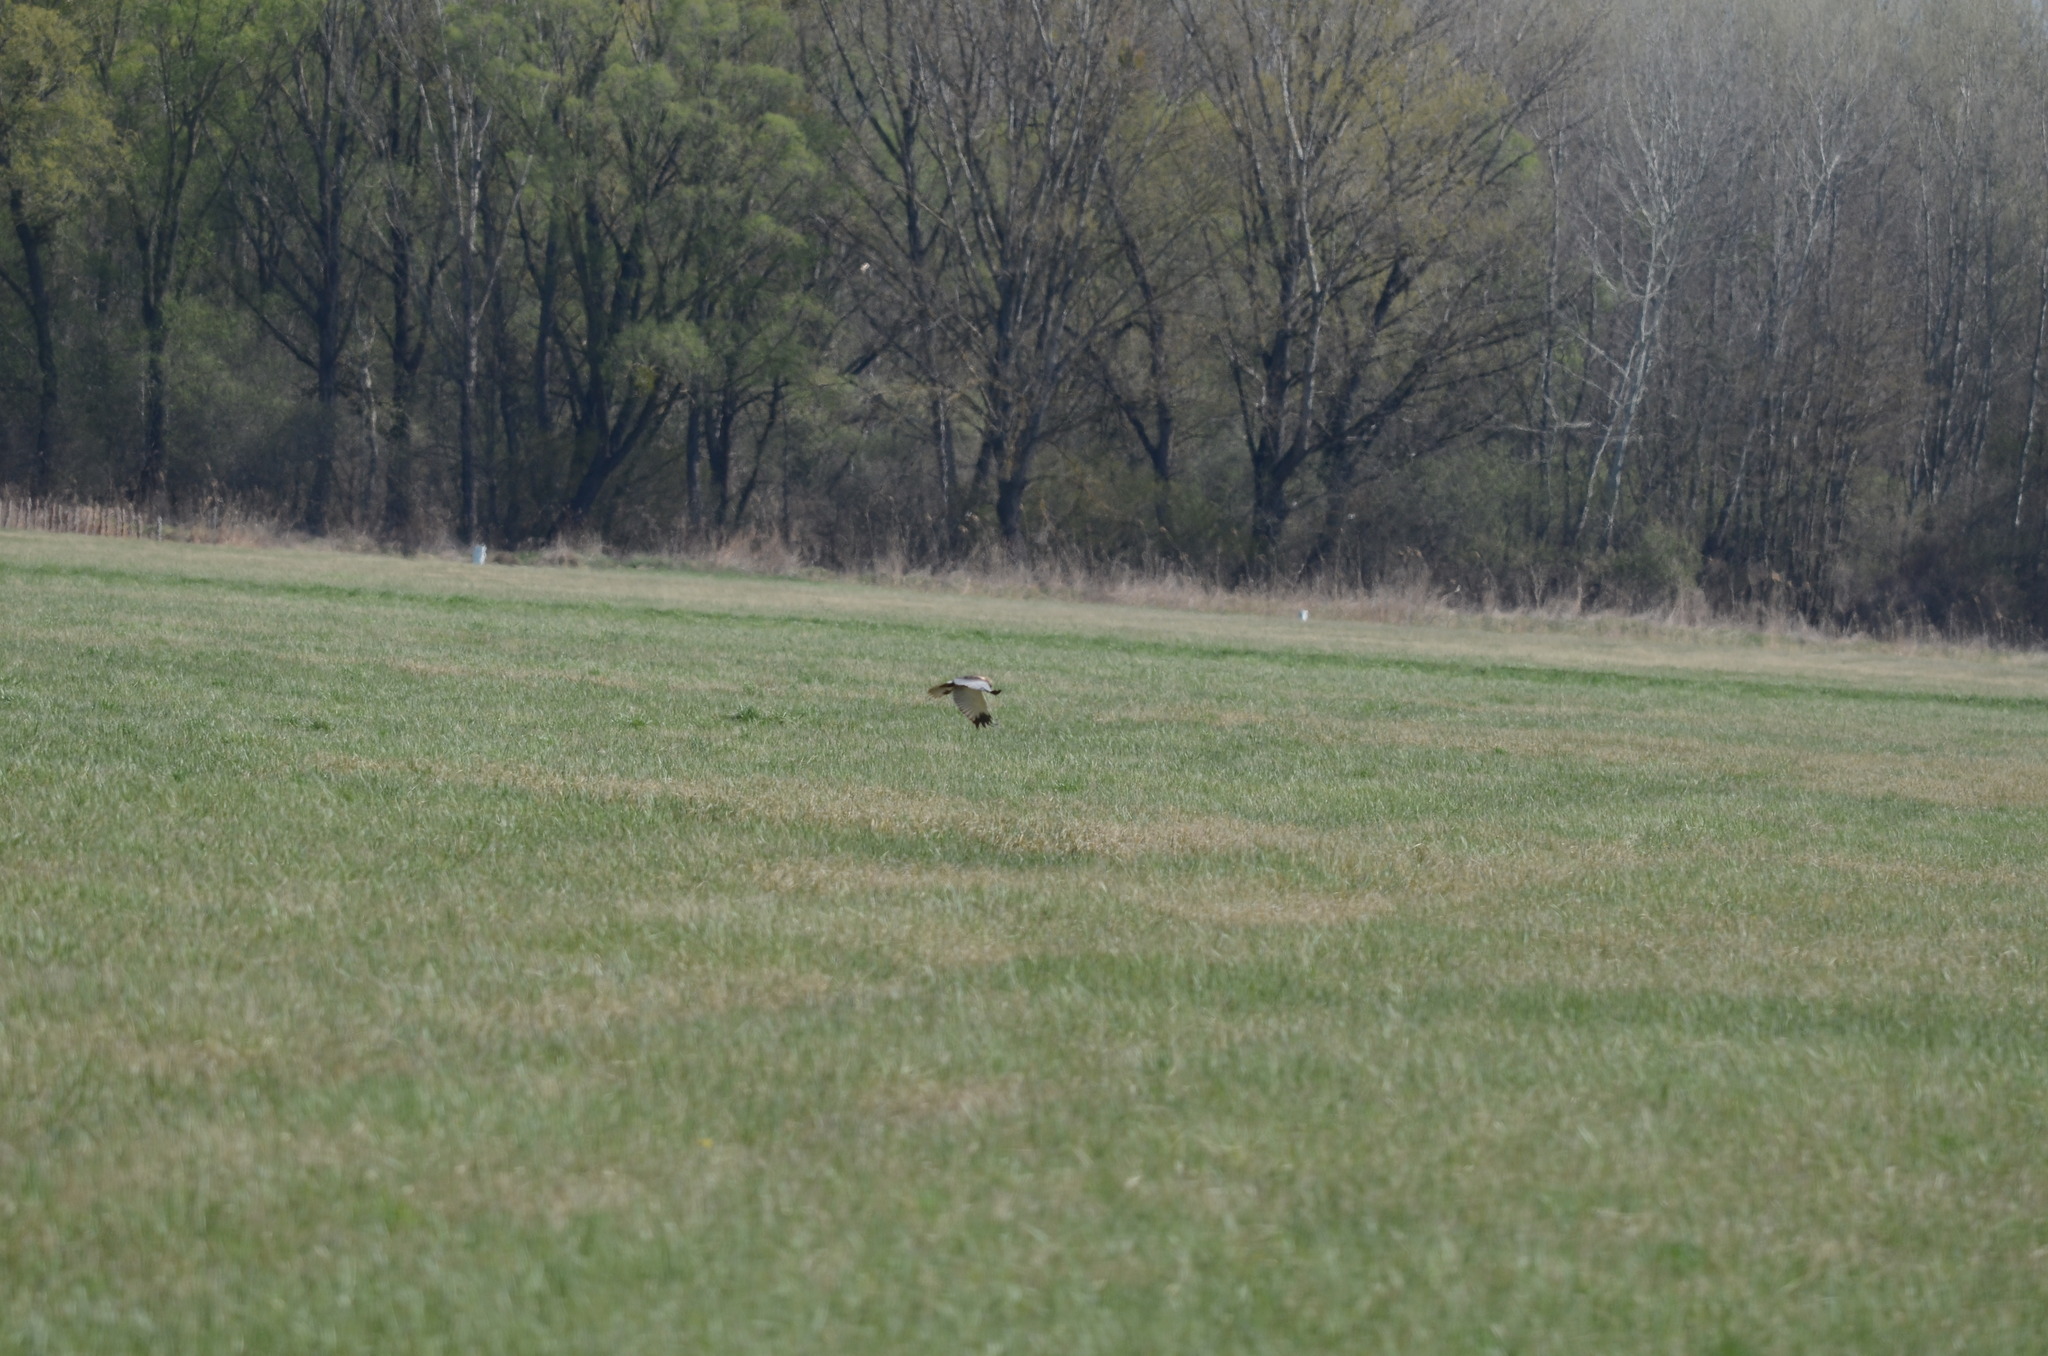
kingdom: Animalia
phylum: Chordata
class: Aves
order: Accipitriformes
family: Accipitridae
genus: Circus
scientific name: Circus aeruginosus
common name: Western marsh harrier
